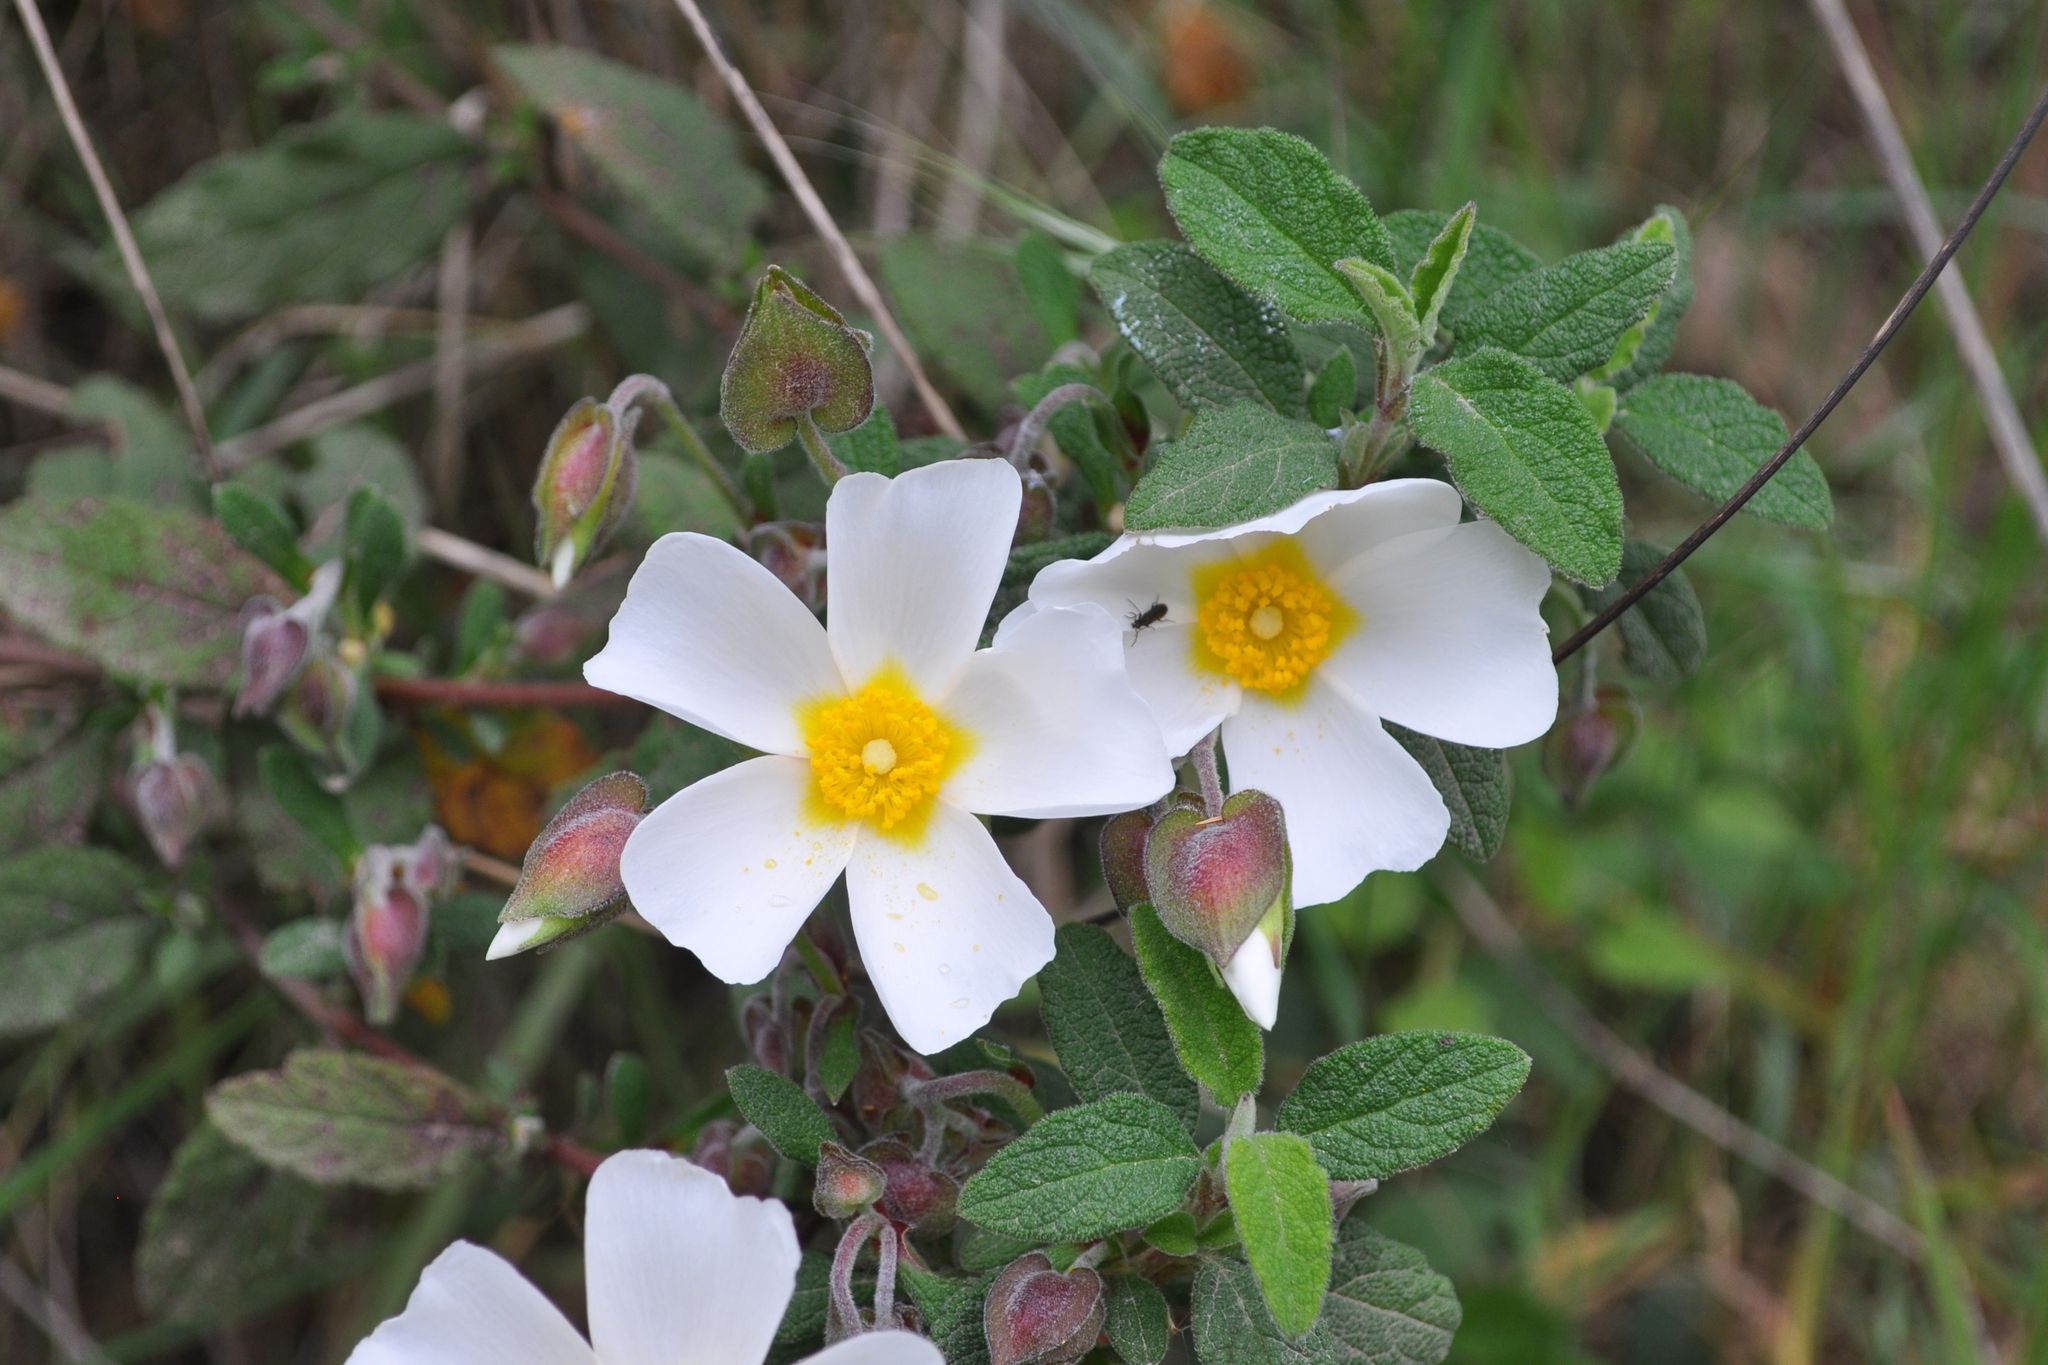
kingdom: Plantae
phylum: Tracheophyta
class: Magnoliopsida
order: Malvales
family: Cistaceae
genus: Cistus
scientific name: Cistus salviifolius
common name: Salvia cistus
